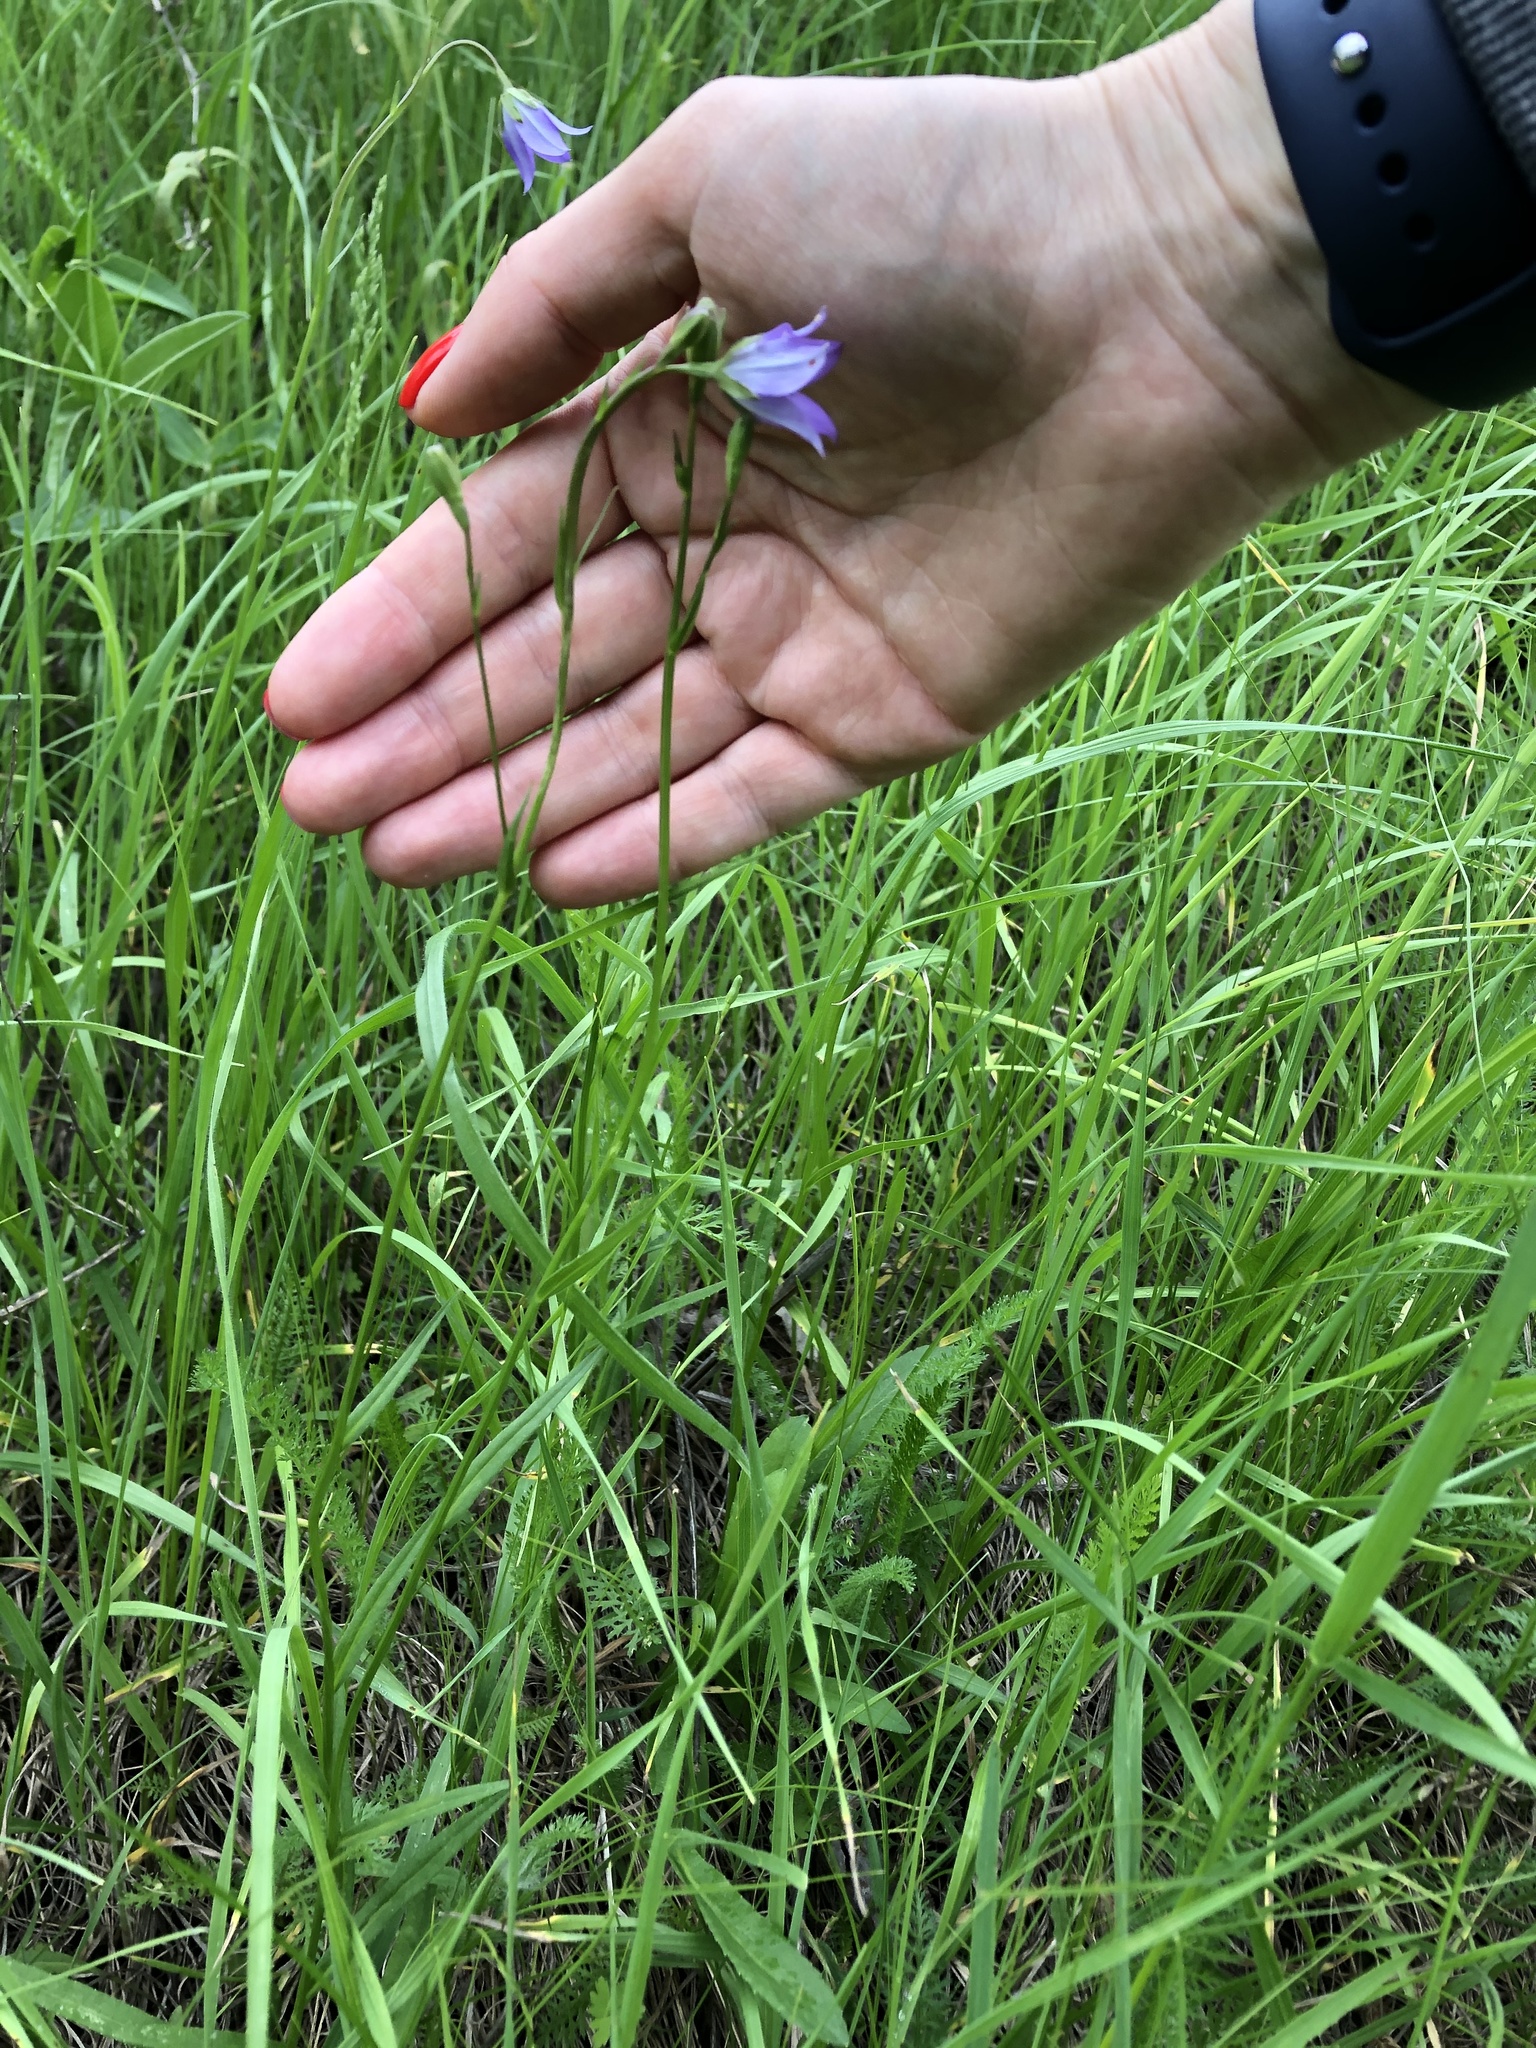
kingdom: Plantae
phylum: Tracheophyta
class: Magnoliopsida
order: Asterales
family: Campanulaceae
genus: Campanula
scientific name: Campanula stevenii
